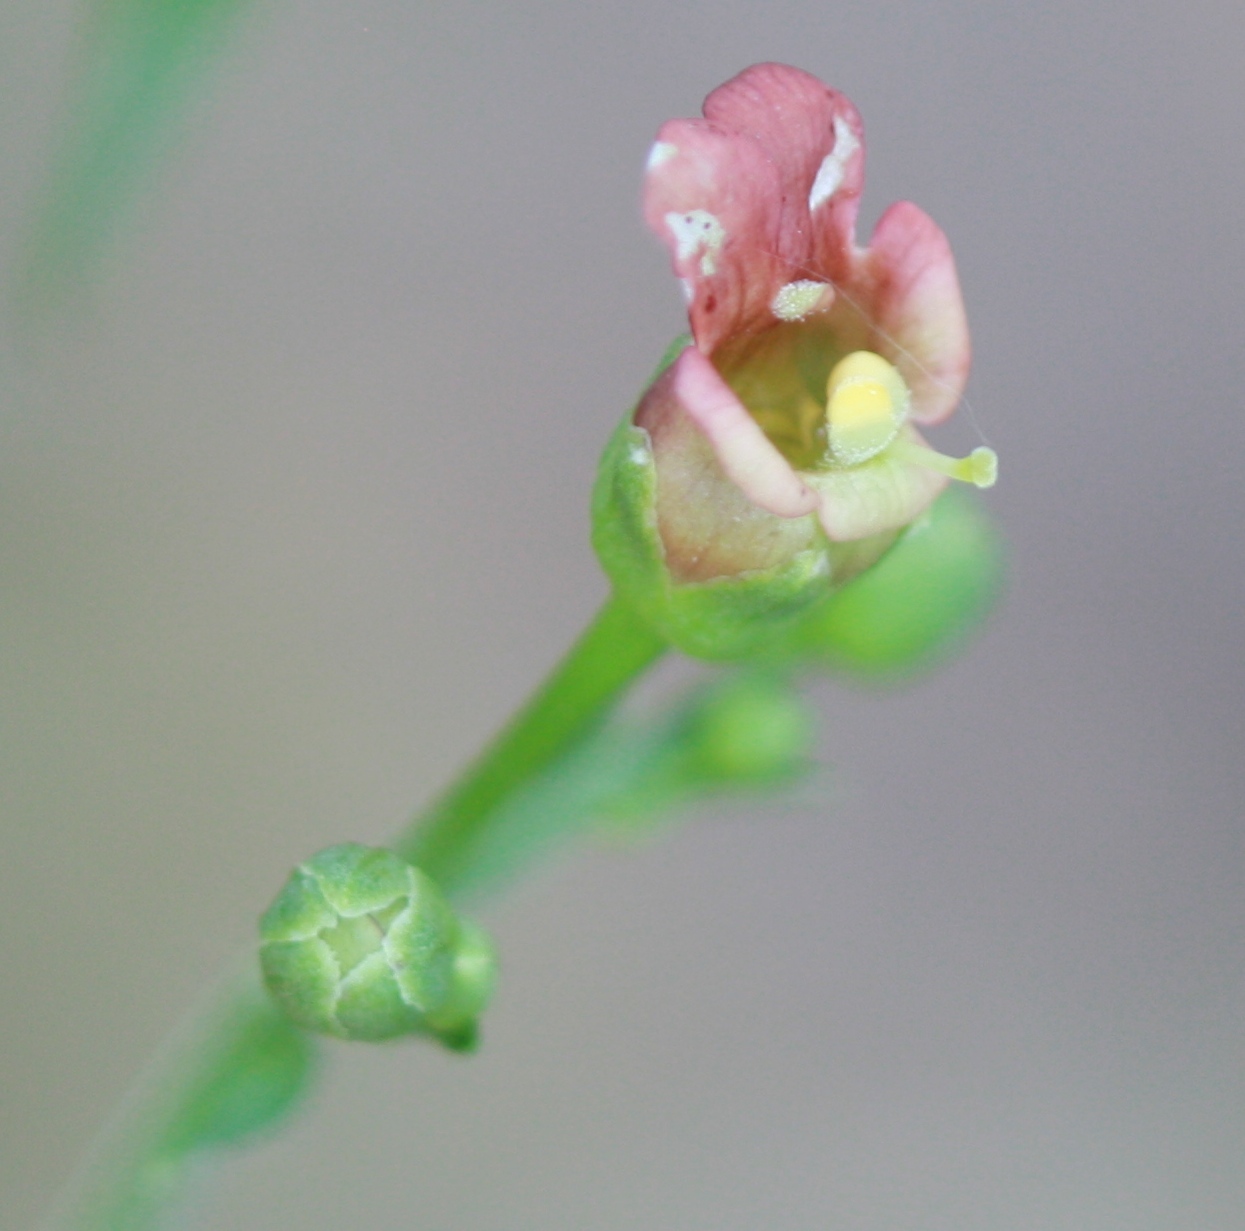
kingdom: Plantae
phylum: Tracheophyta
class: Magnoliopsida
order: Lamiales
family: Scrophulariaceae
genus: Scrophularia
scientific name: Scrophularia californica
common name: California figwort
